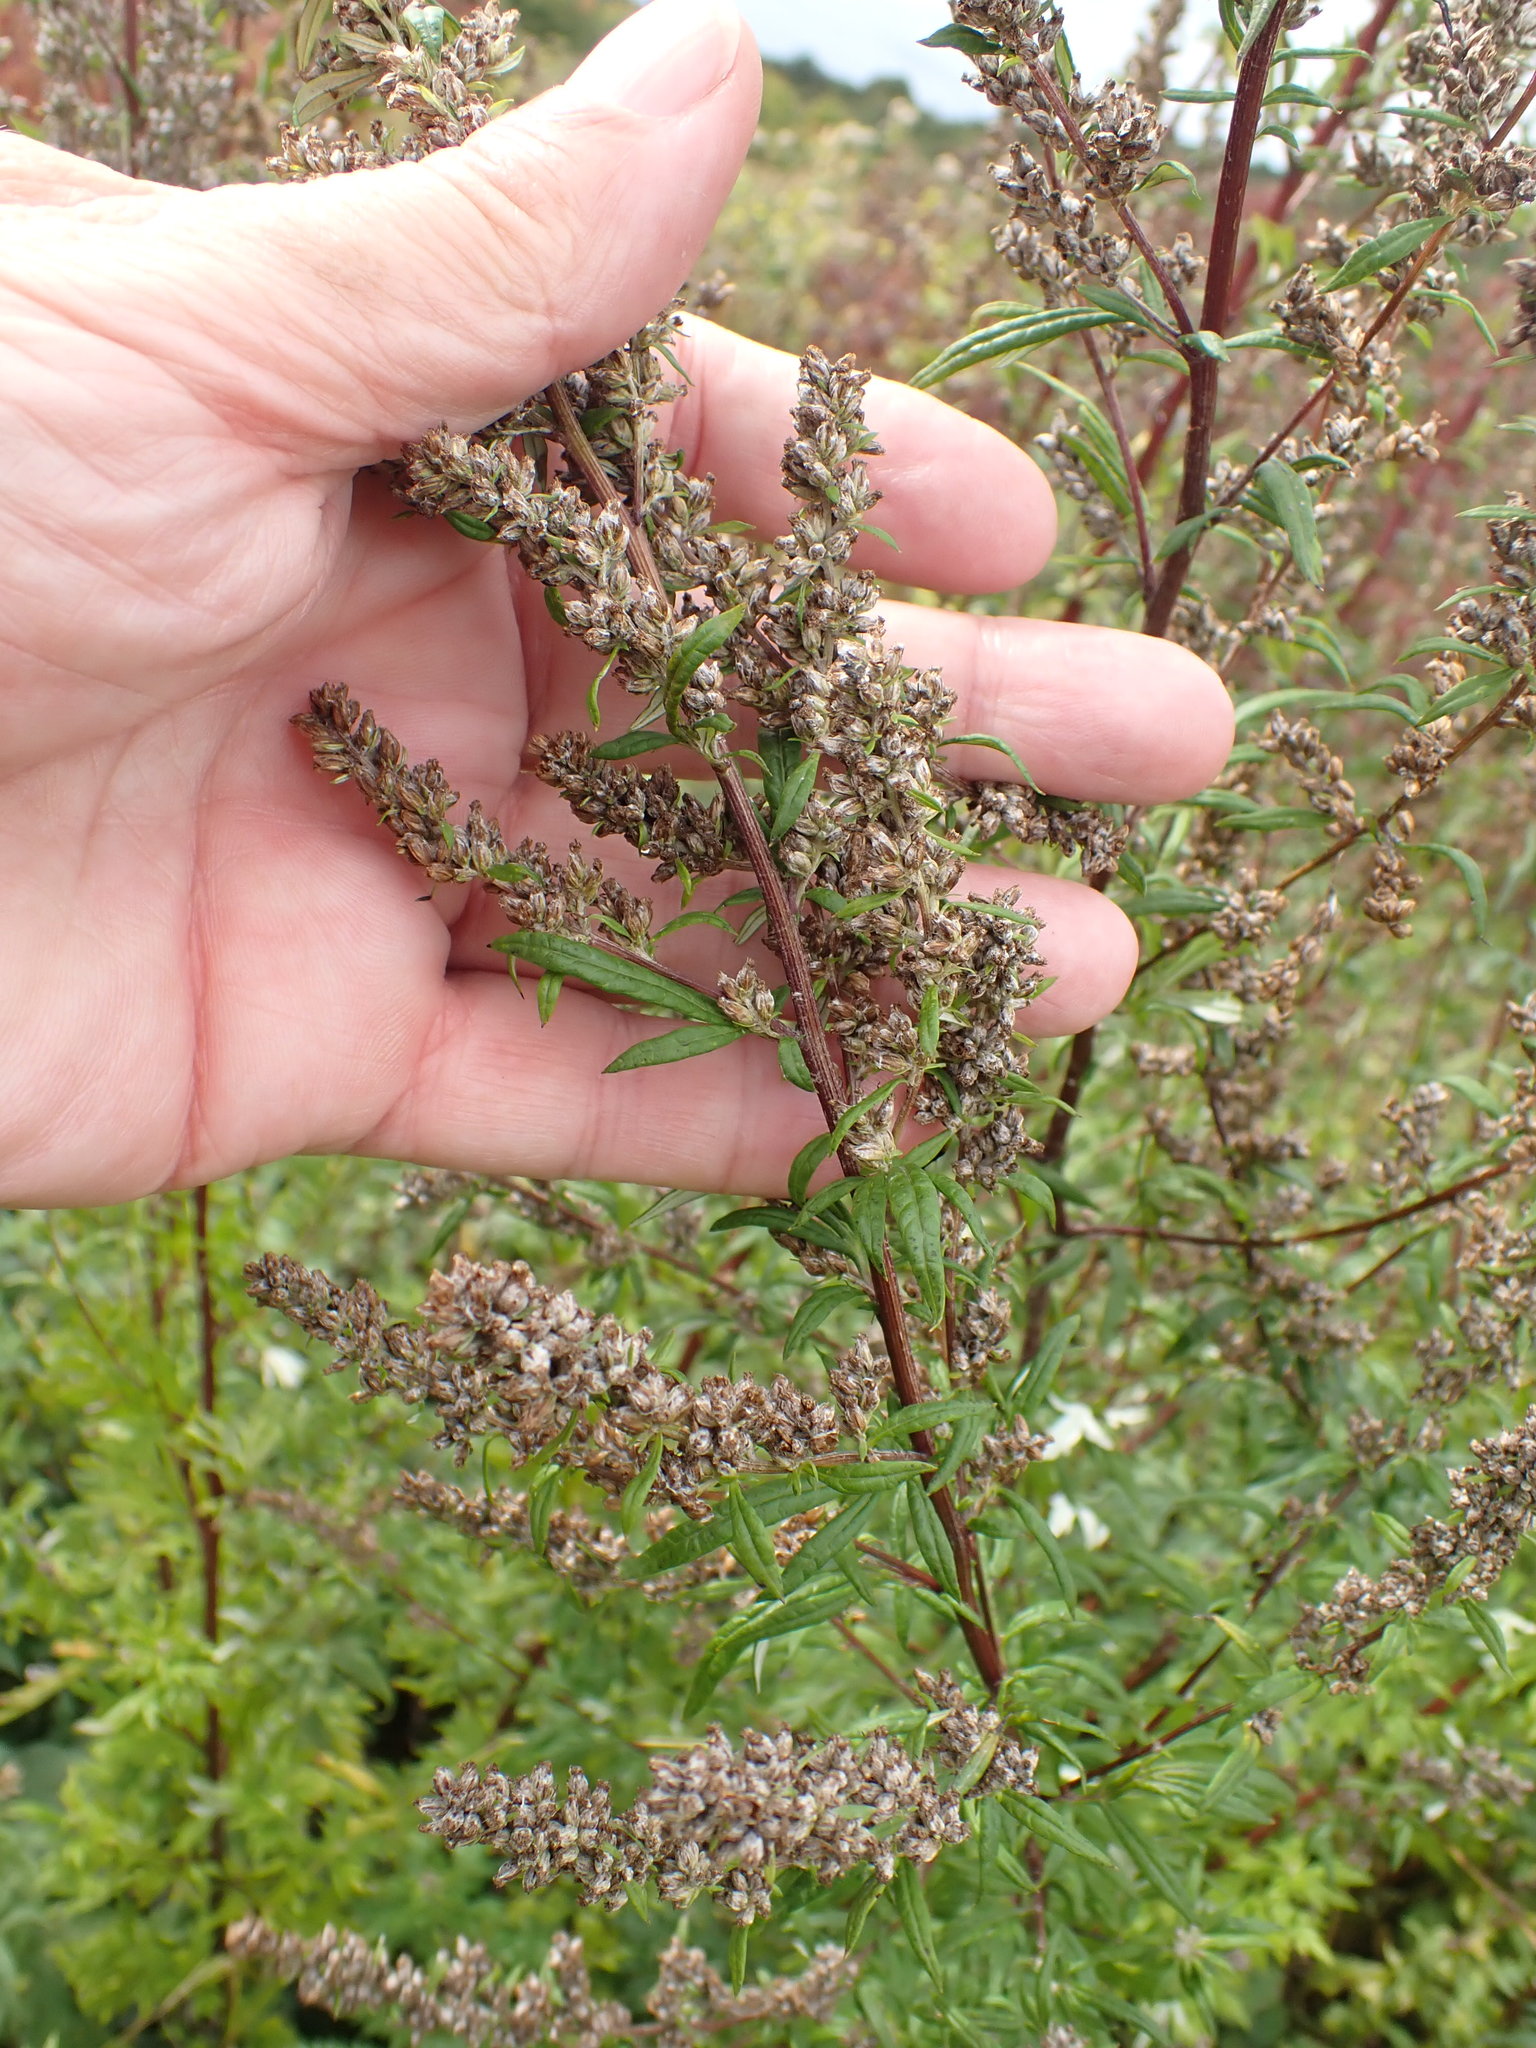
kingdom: Plantae
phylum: Tracheophyta
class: Magnoliopsida
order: Asterales
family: Asteraceae
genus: Artemisia
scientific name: Artemisia vulgaris
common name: Mugwort
